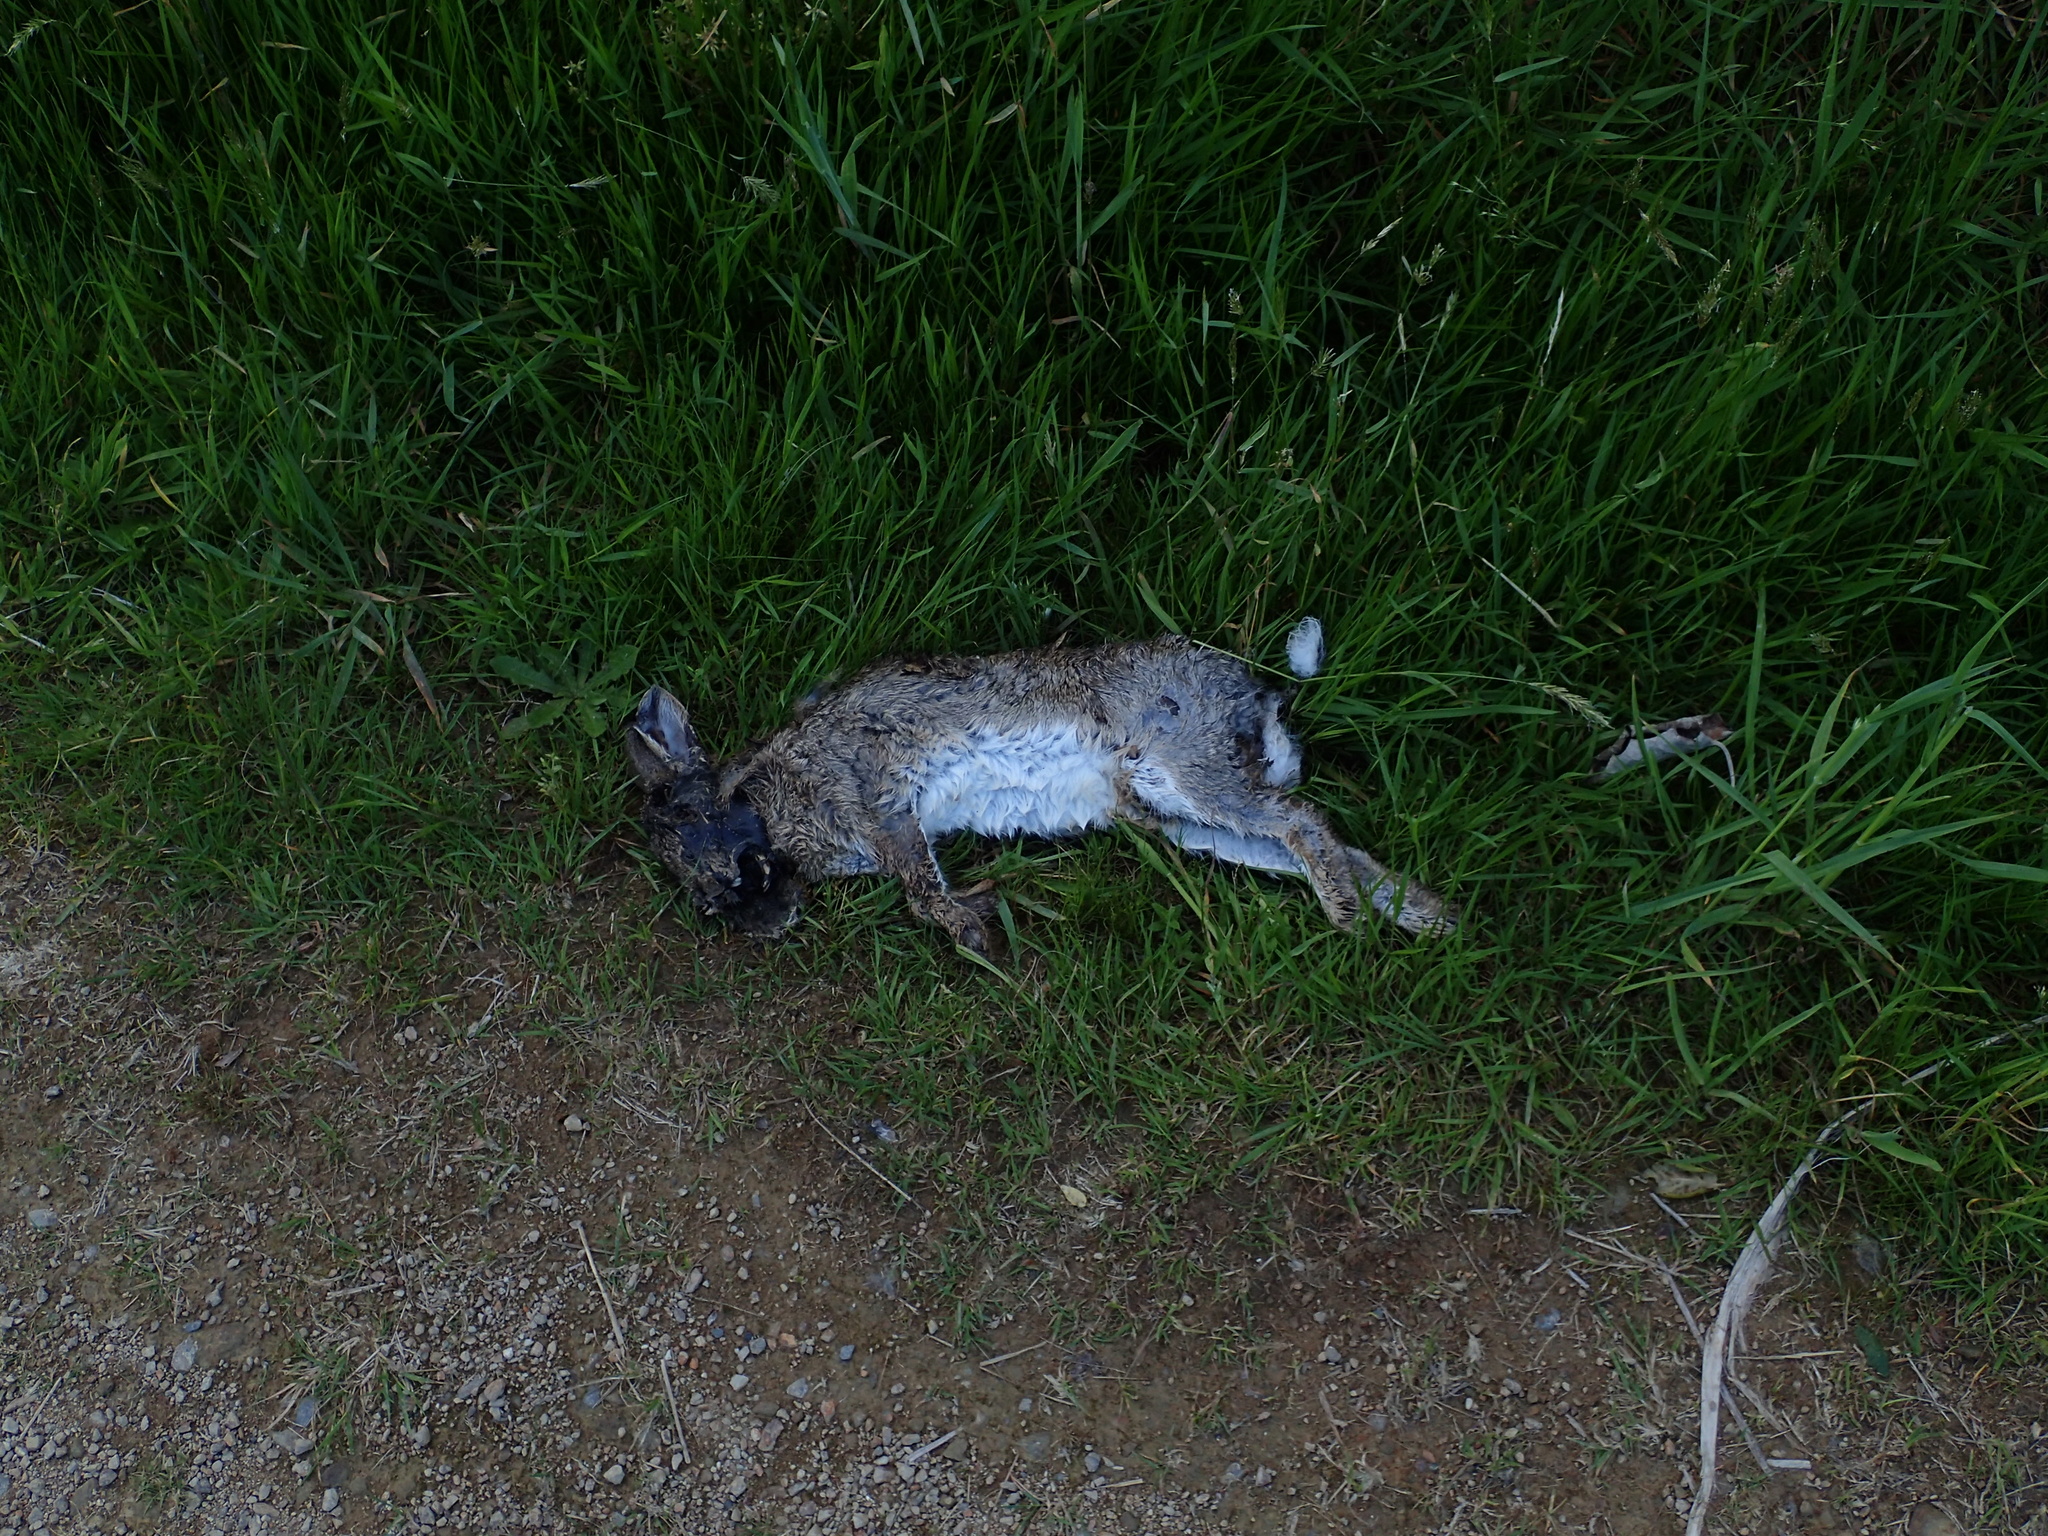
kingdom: Animalia
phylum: Chordata
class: Mammalia
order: Lagomorpha
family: Leporidae
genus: Oryctolagus
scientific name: Oryctolagus cuniculus
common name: European rabbit
